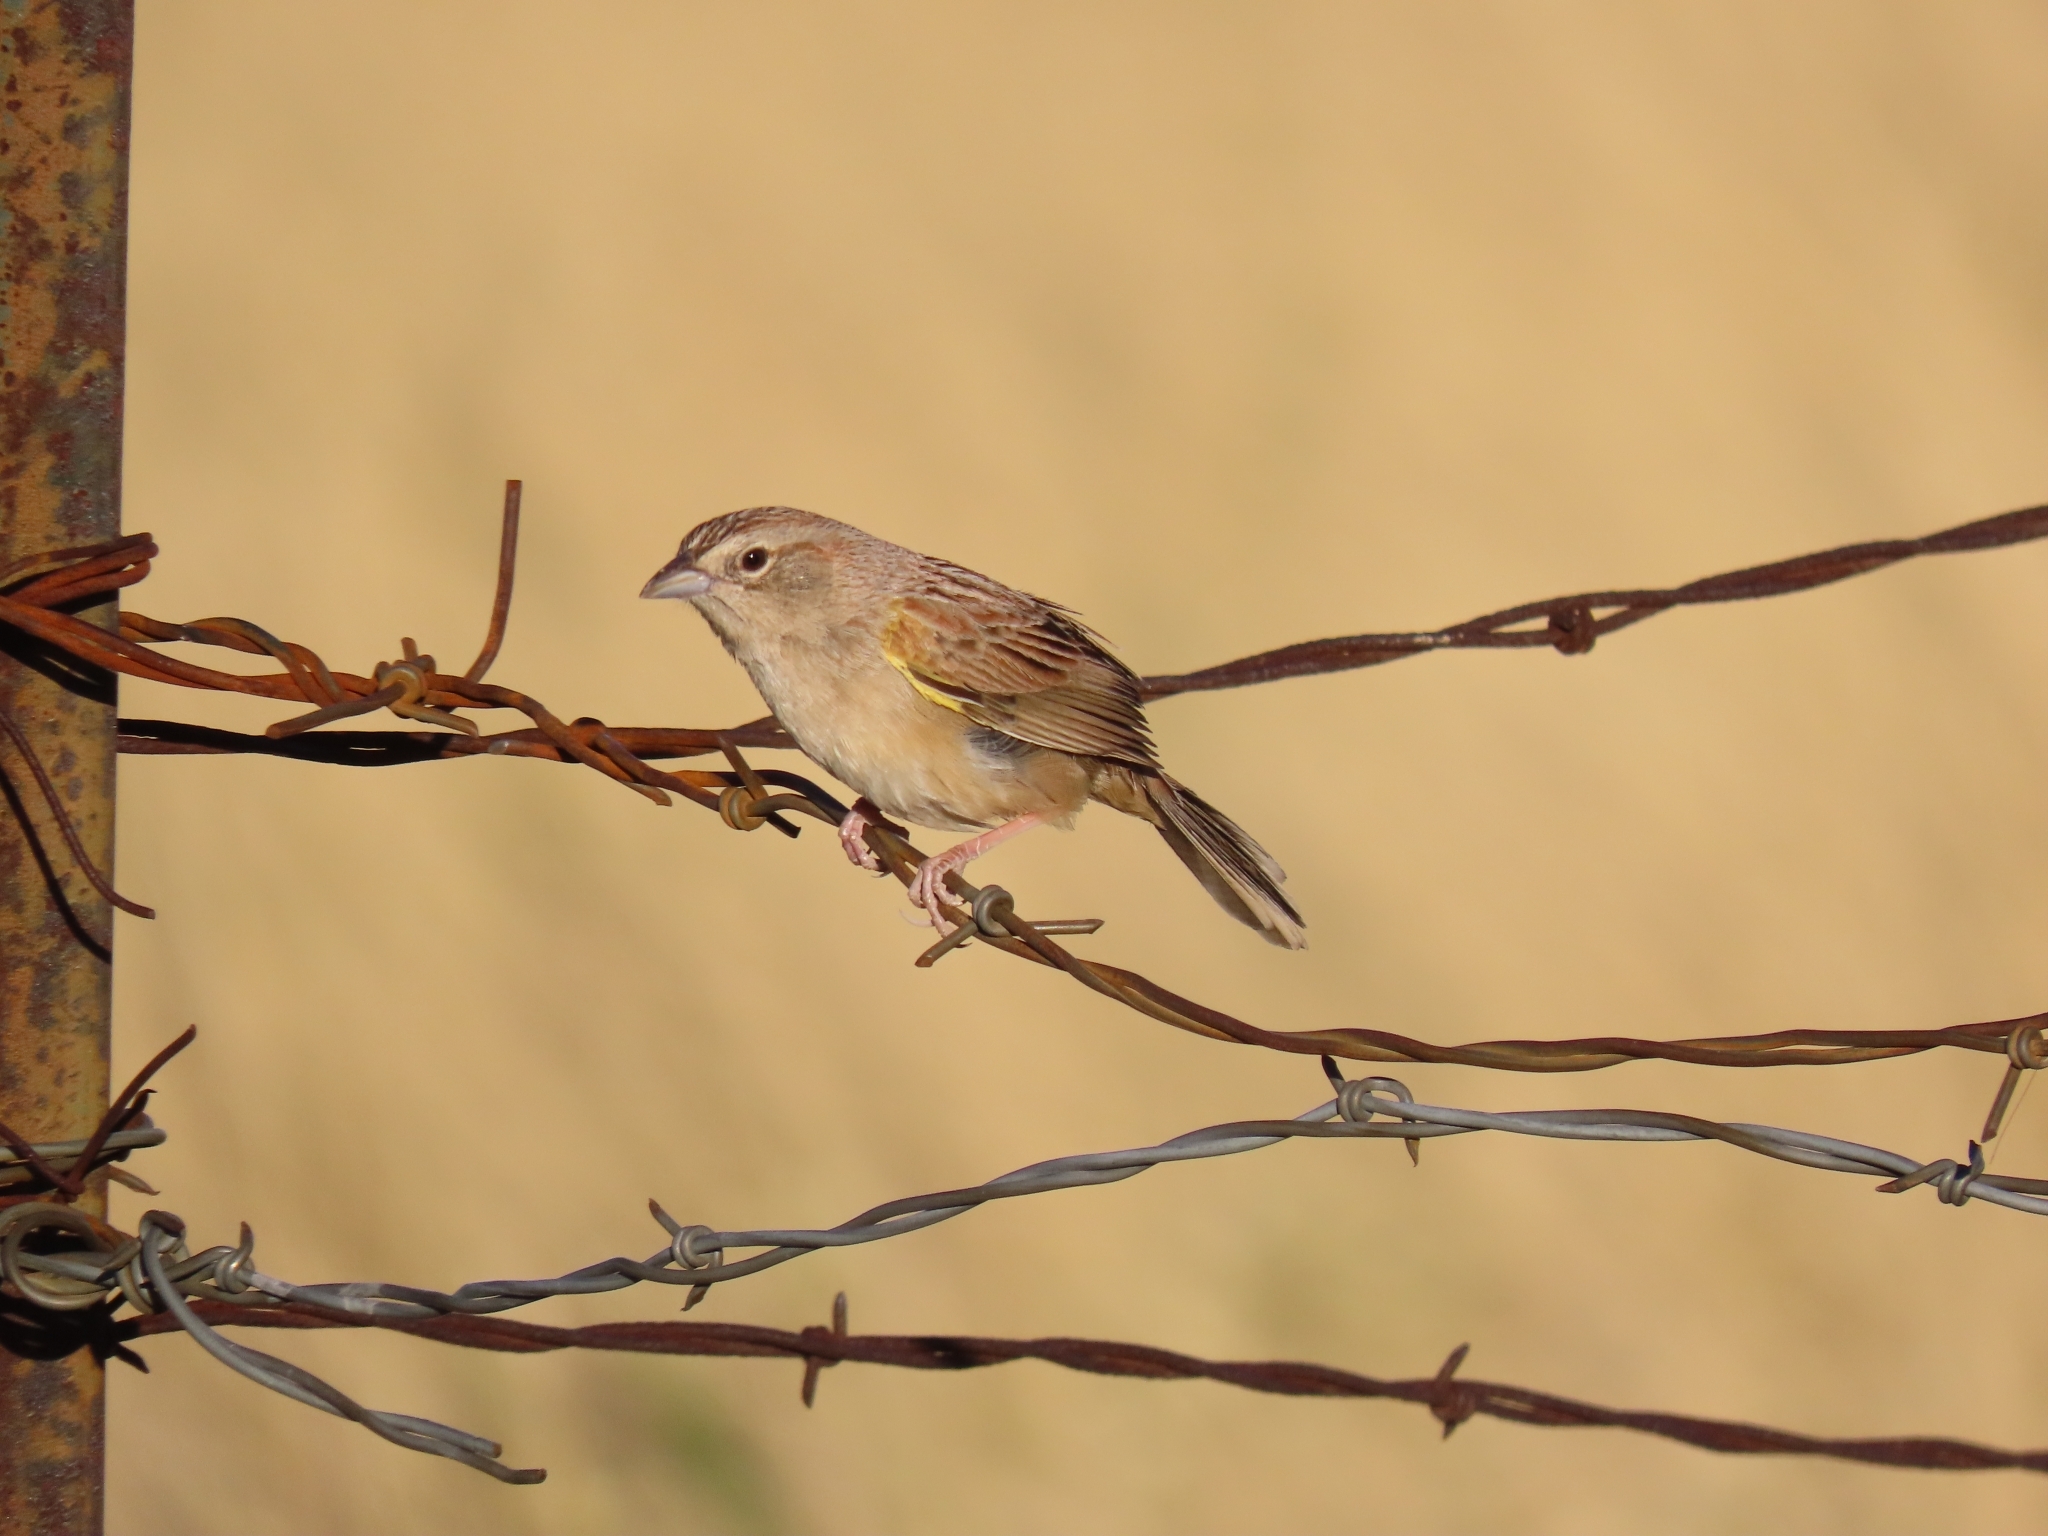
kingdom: Animalia
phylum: Chordata
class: Aves
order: Passeriformes
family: Passerellidae
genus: Peucaea
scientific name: Peucaea botterii
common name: Botteri's sparrow
